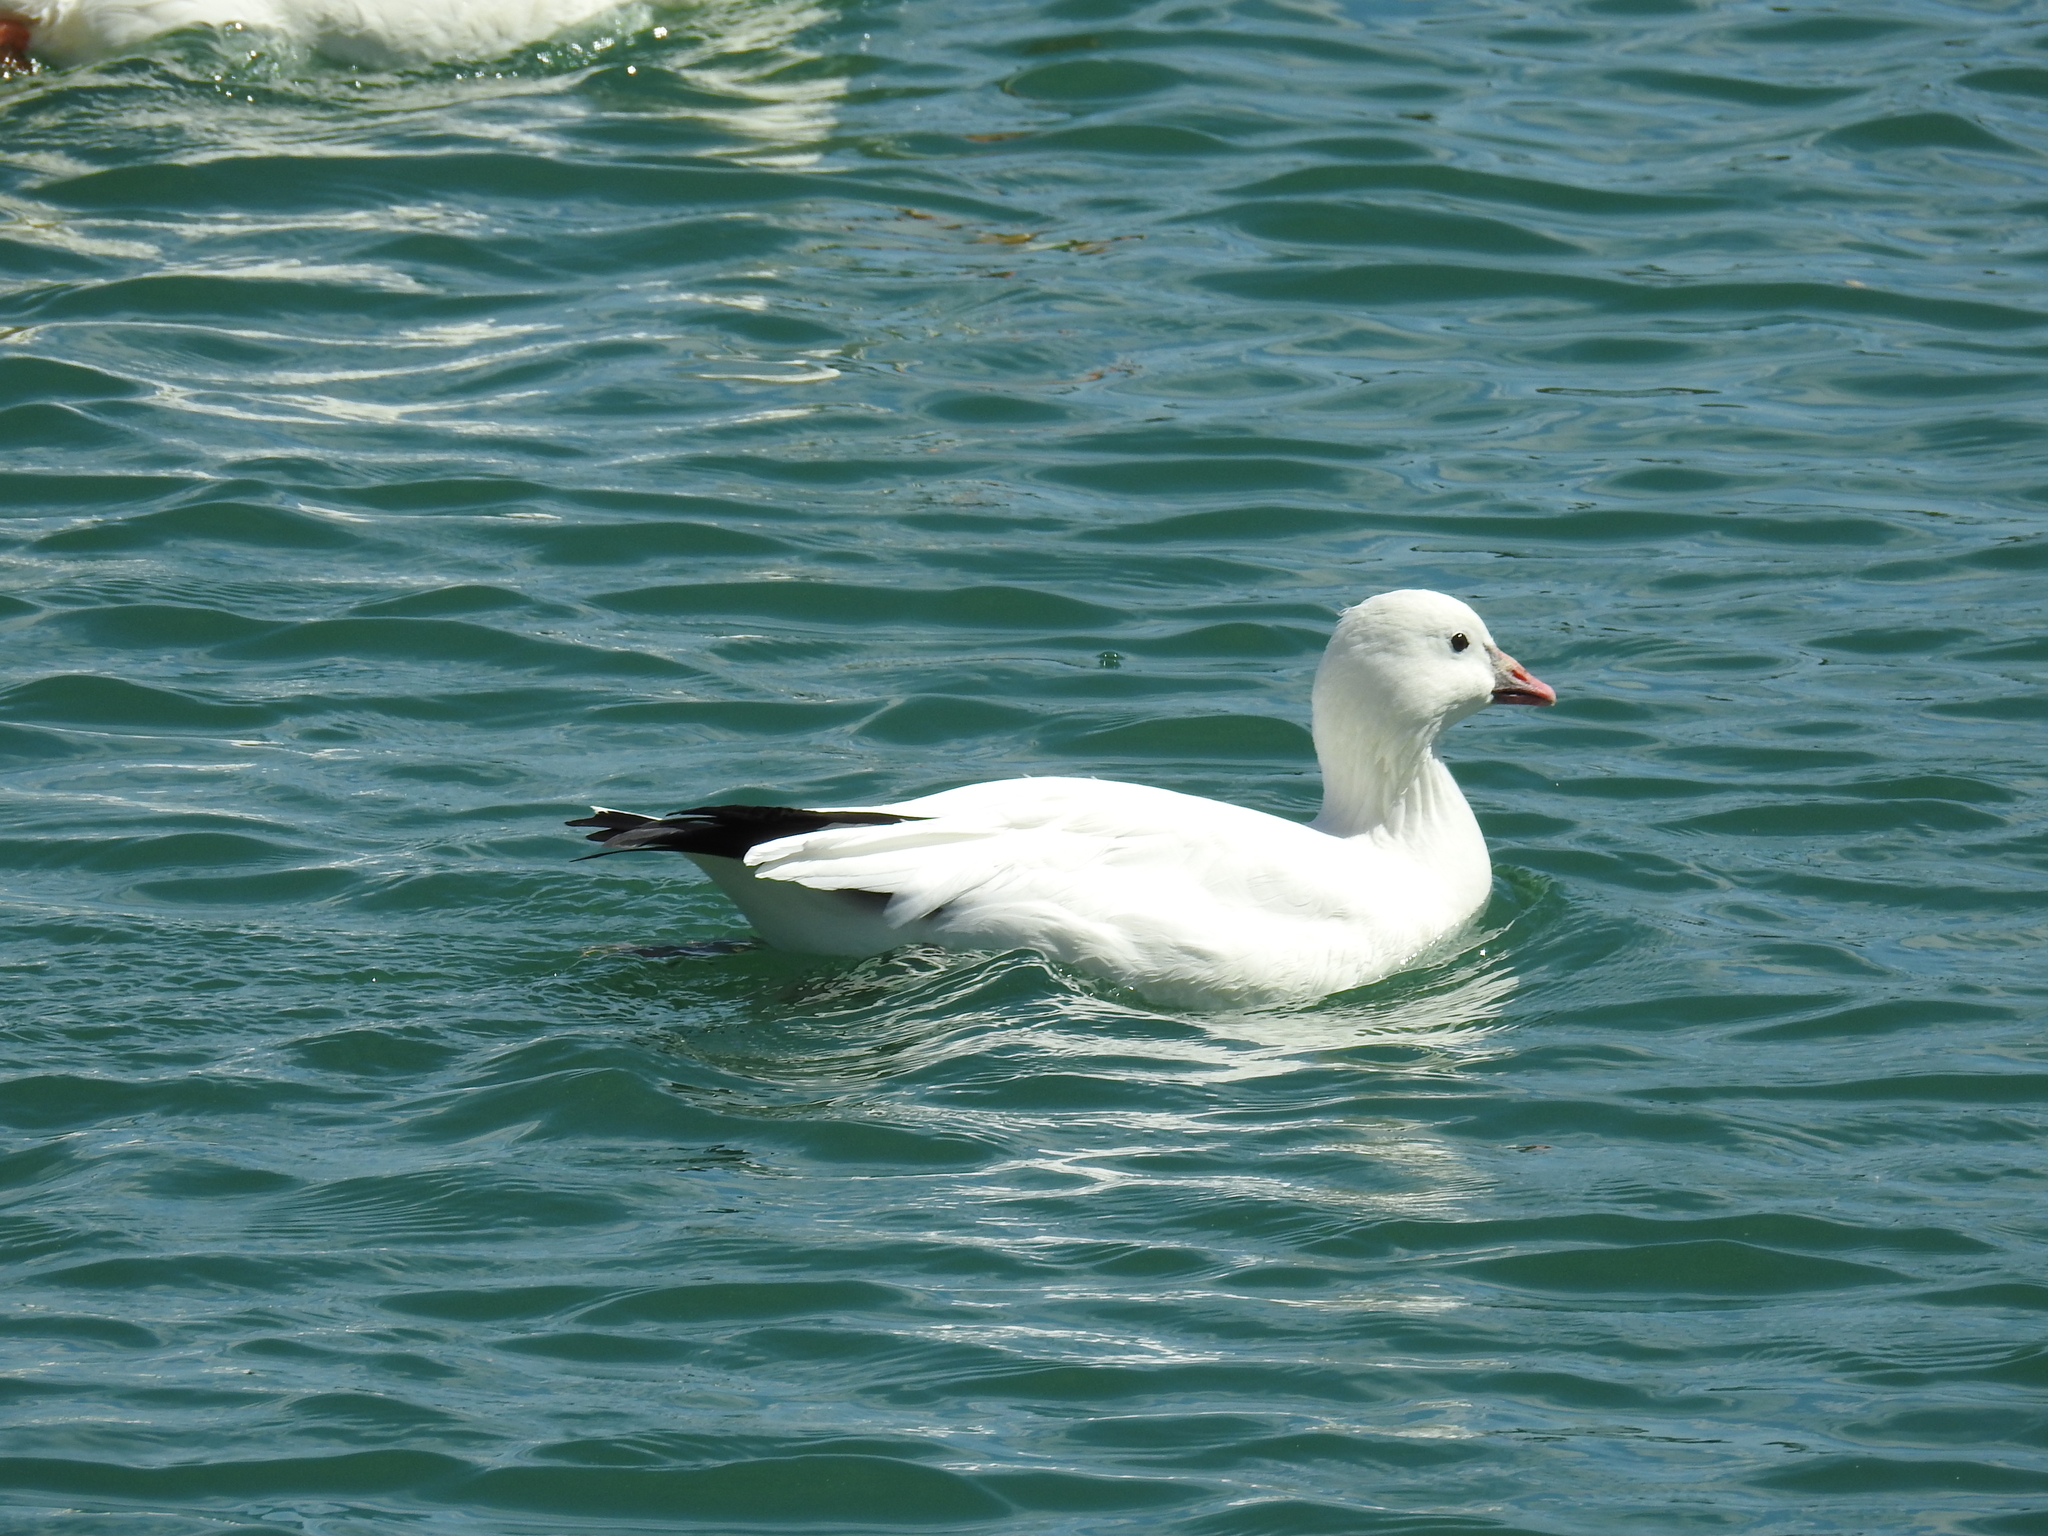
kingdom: Animalia
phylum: Chordata
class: Aves
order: Anseriformes
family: Anatidae
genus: Anser
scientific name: Anser rossii
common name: Ross's goose
